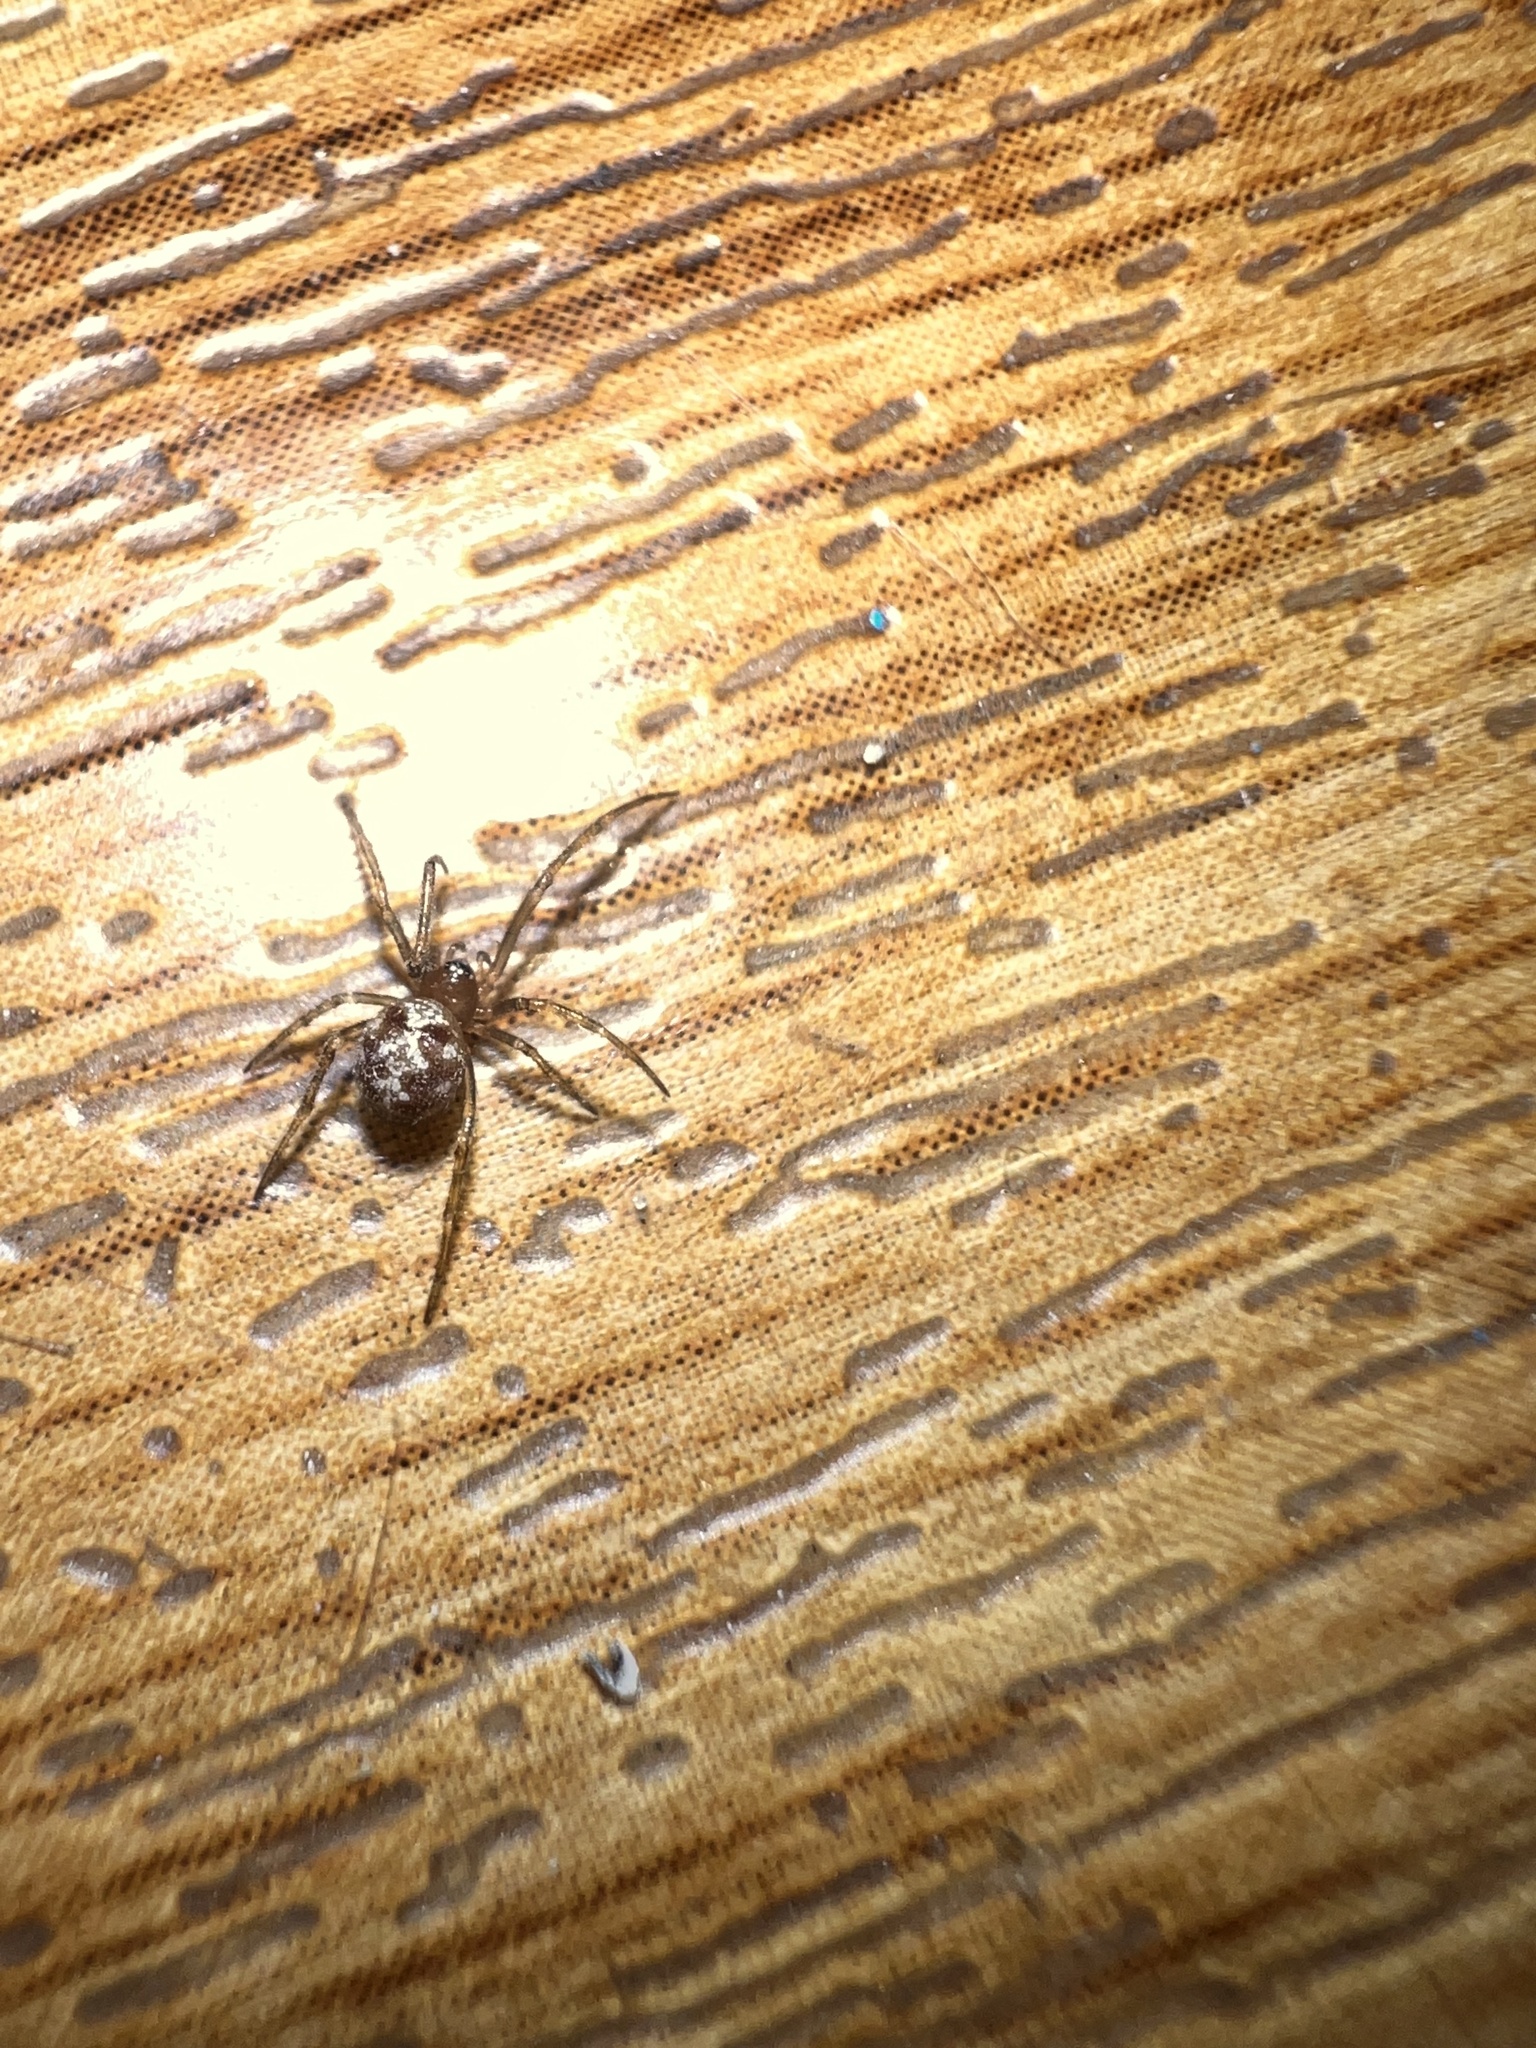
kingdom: Animalia
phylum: Arthropoda
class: Arachnida
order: Araneae
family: Theridiidae
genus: Steatoda
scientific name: Steatoda triangulosa
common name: Triangulate bud spider
